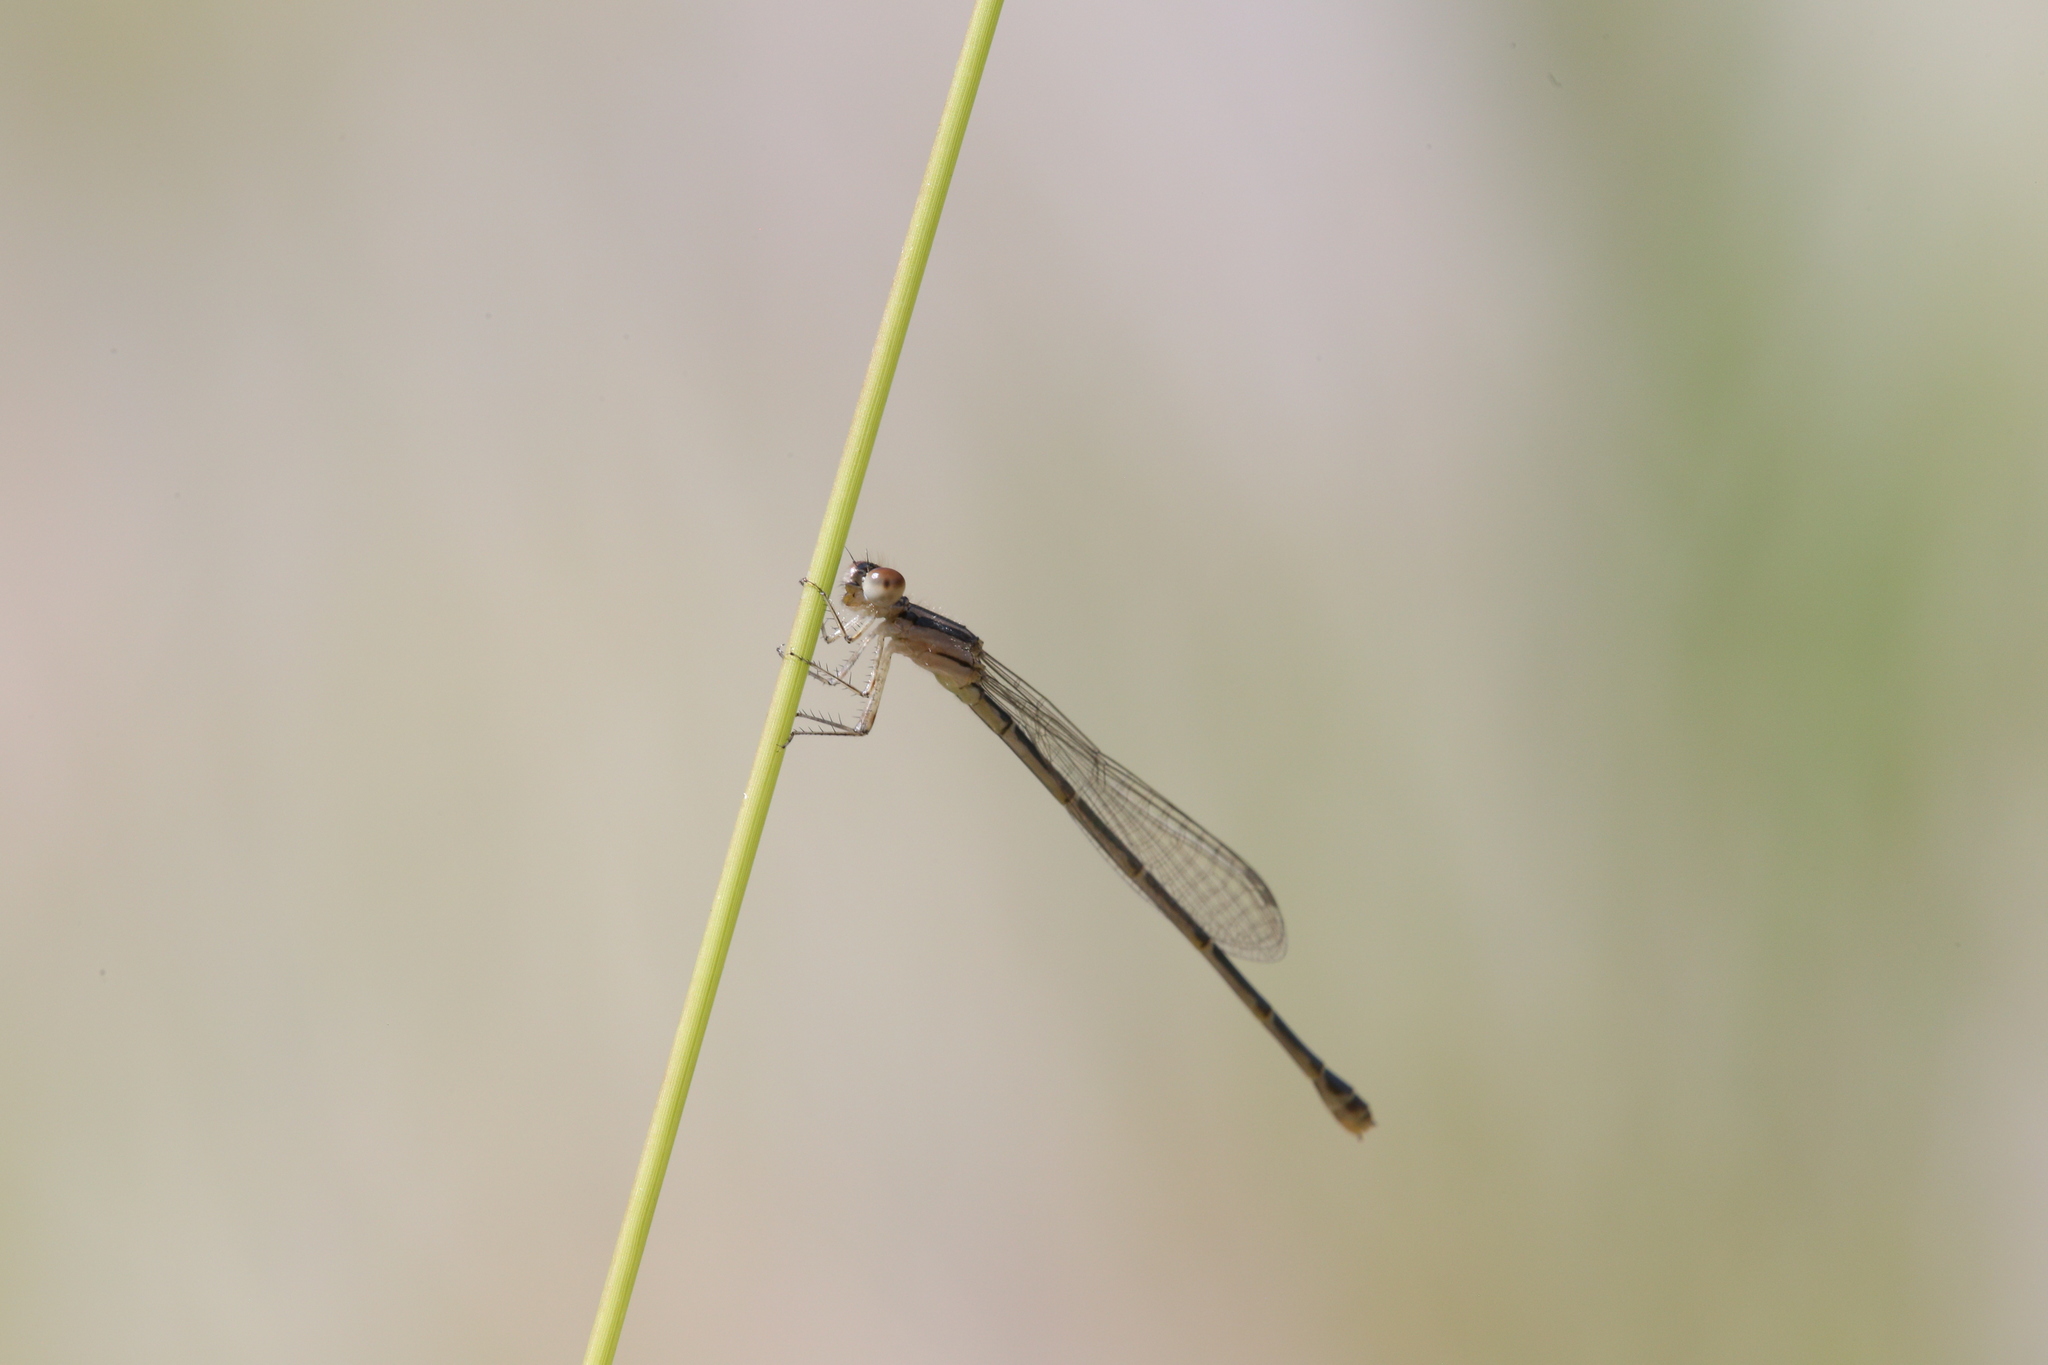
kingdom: Animalia
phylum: Arthropoda
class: Insecta
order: Odonata
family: Coenagrionidae
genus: Austroagrion
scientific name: Austroagrion watsoni
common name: Eastern billabongfly
